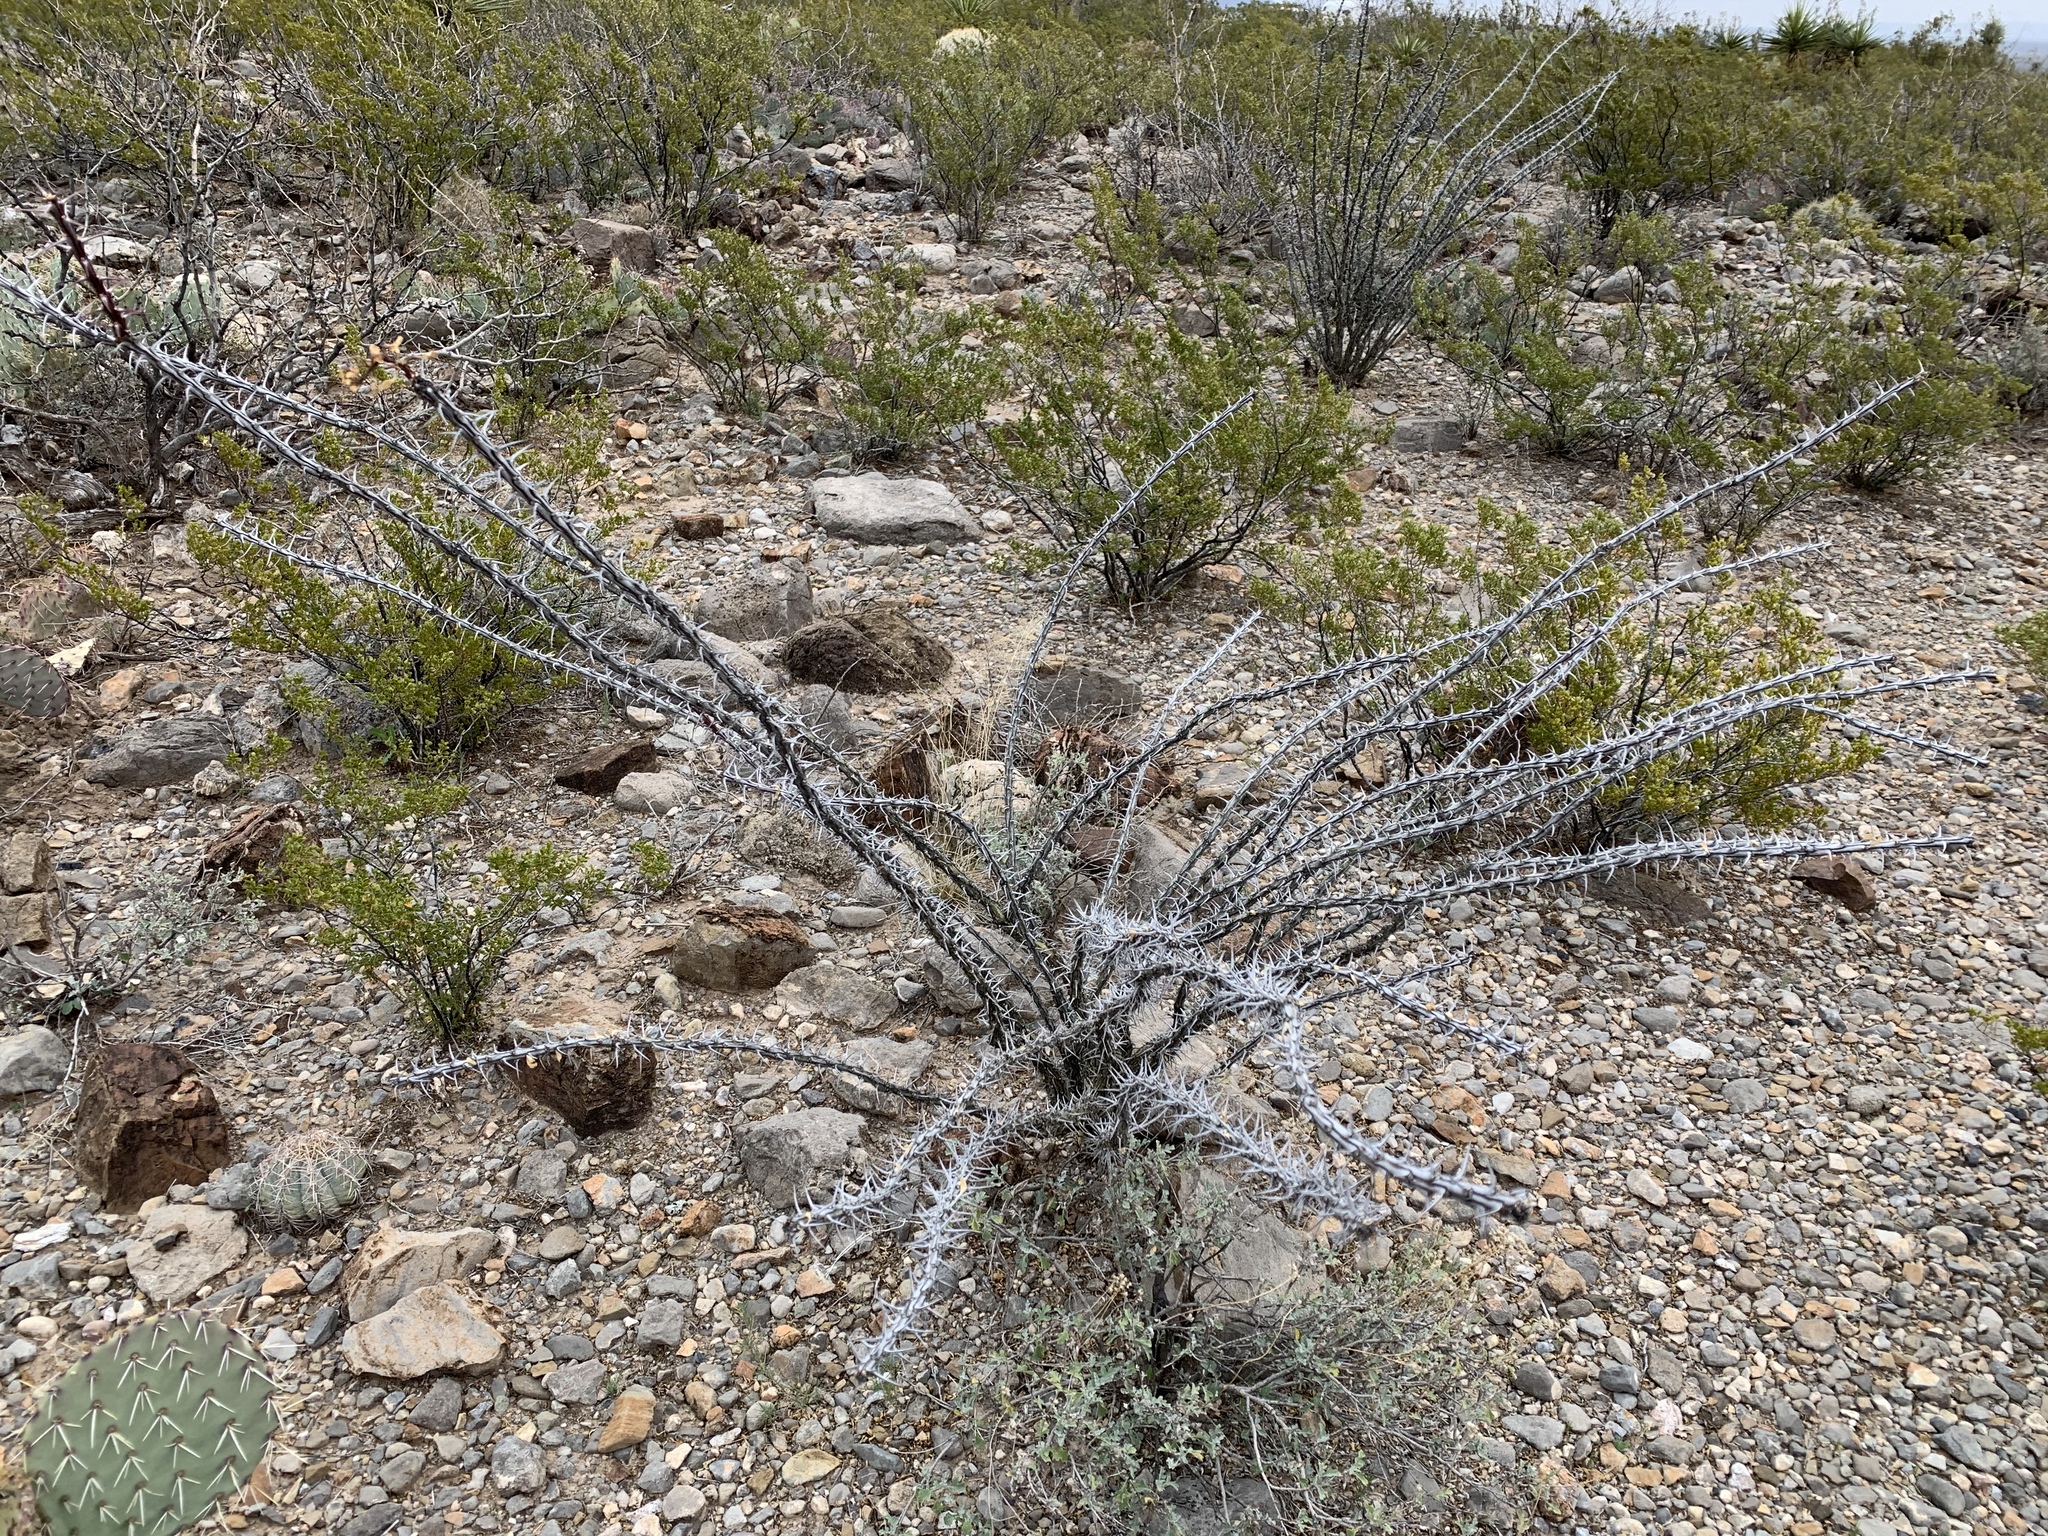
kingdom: Plantae
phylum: Tracheophyta
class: Magnoliopsida
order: Ericales
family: Fouquieriaceae
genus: Fouquieria
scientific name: Fouquieria splendens
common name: Vine-cactus
